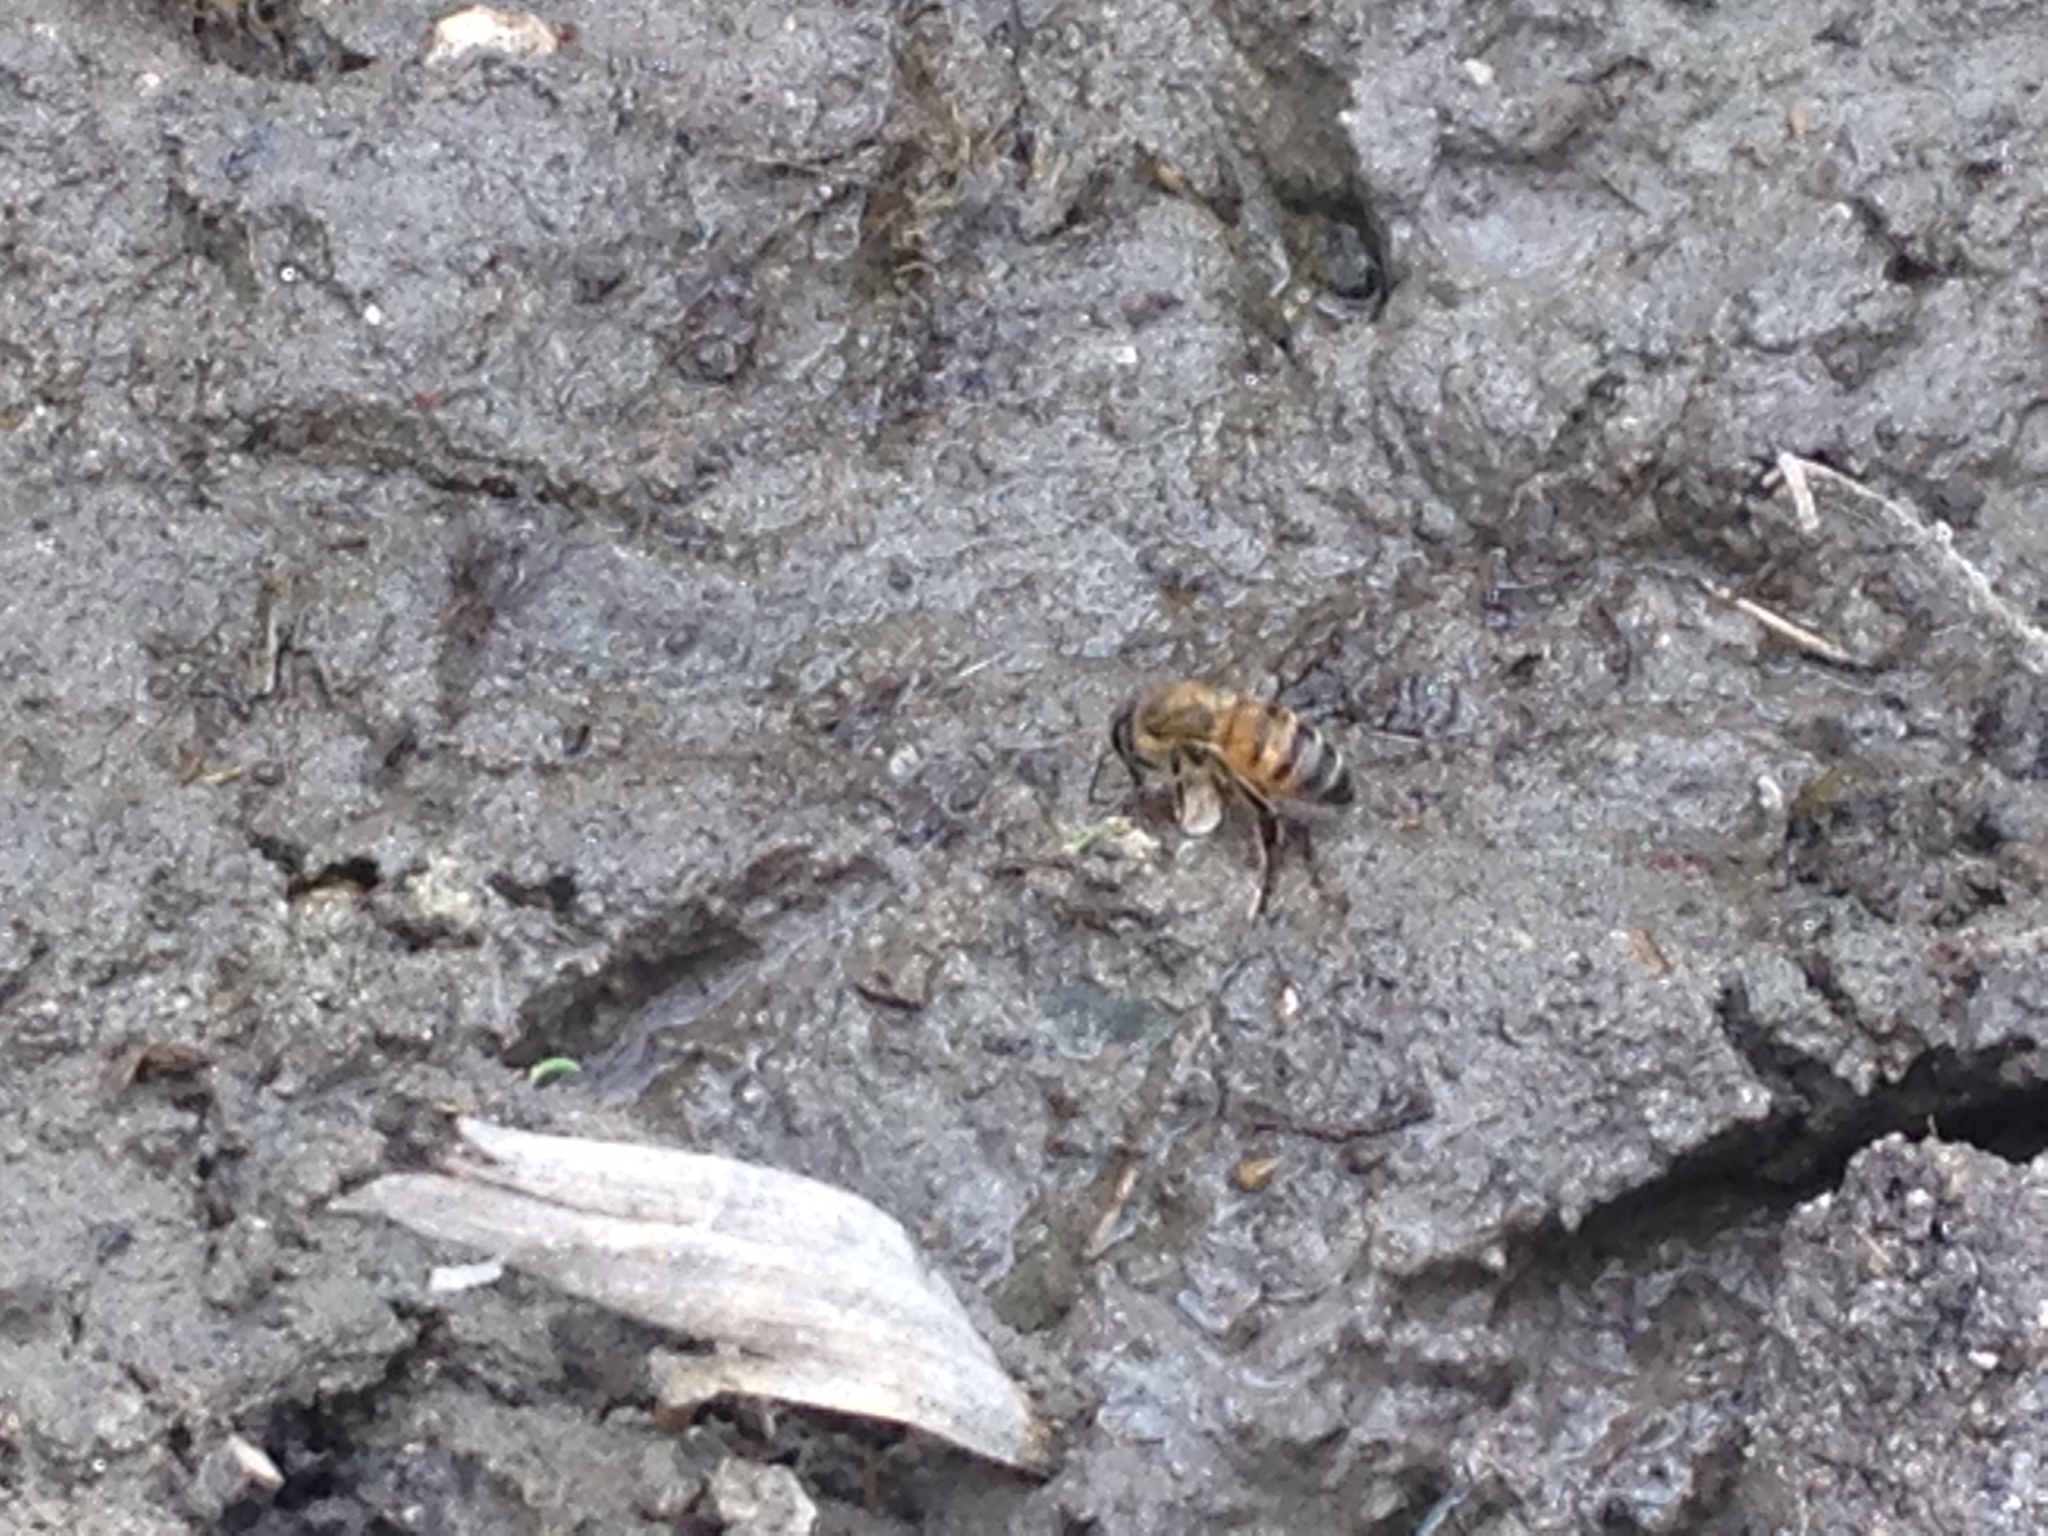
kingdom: Animalia
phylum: Arthropoda
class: Insecta
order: Hymenoptera
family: Apidae
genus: Apis
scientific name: Apis mellifera
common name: Honey bee
